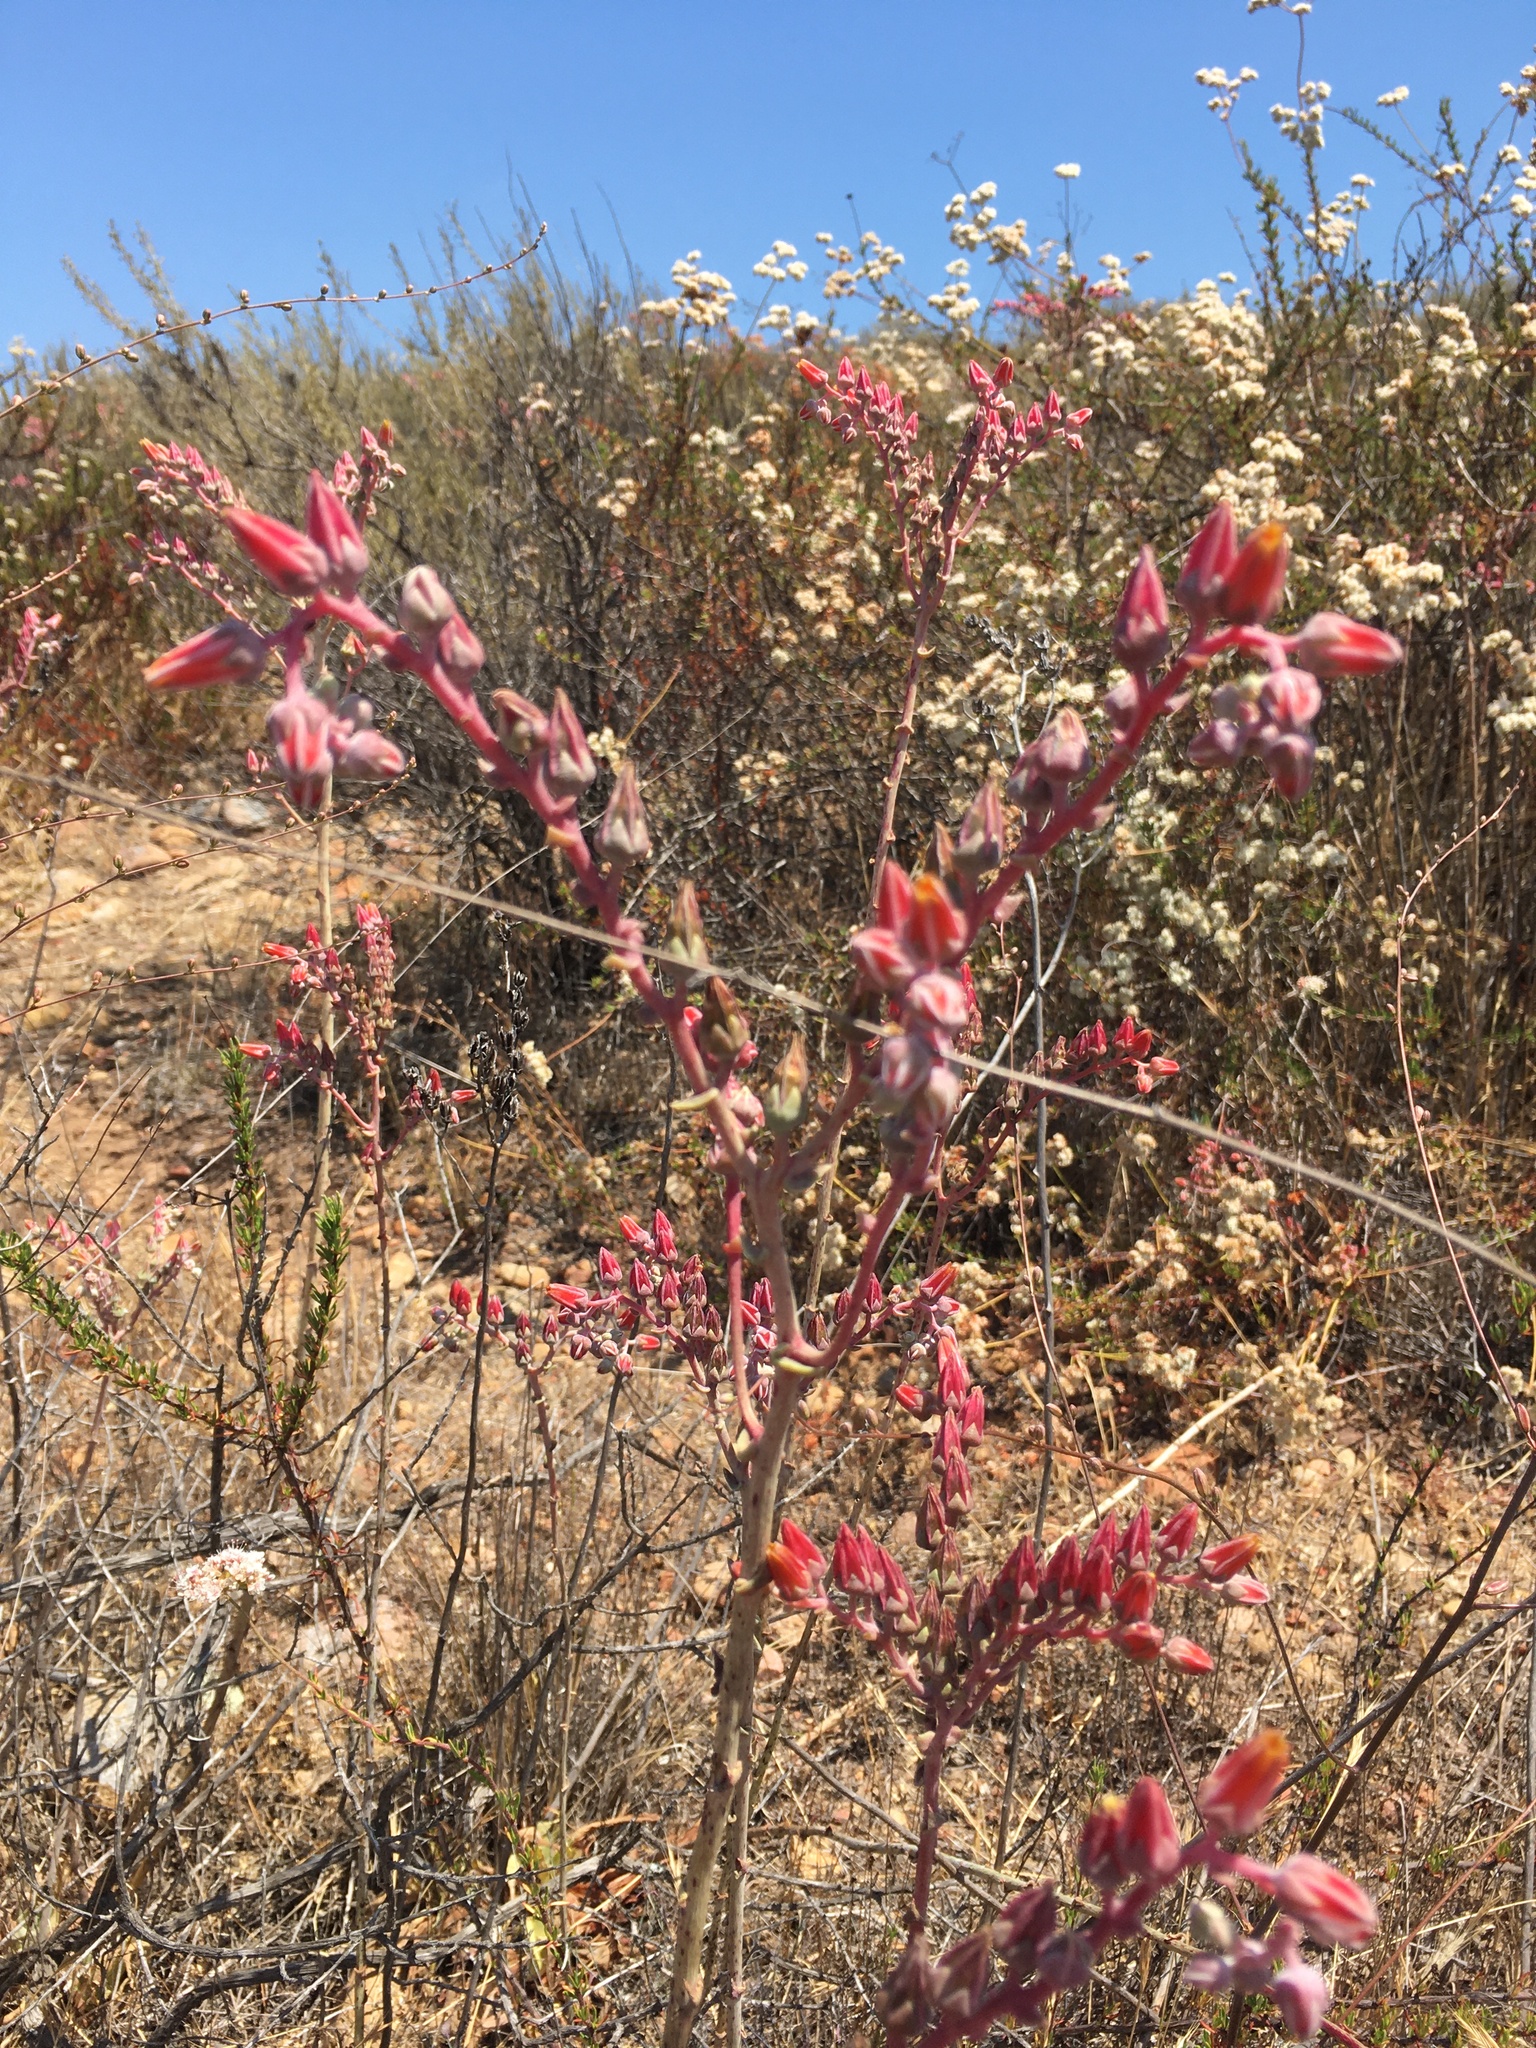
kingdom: Plantae
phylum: Tracheophyta
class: Magnoliopsida
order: Saxifragales
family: Crassulaceae
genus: Dudleya
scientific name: Dudleya lanceolata
